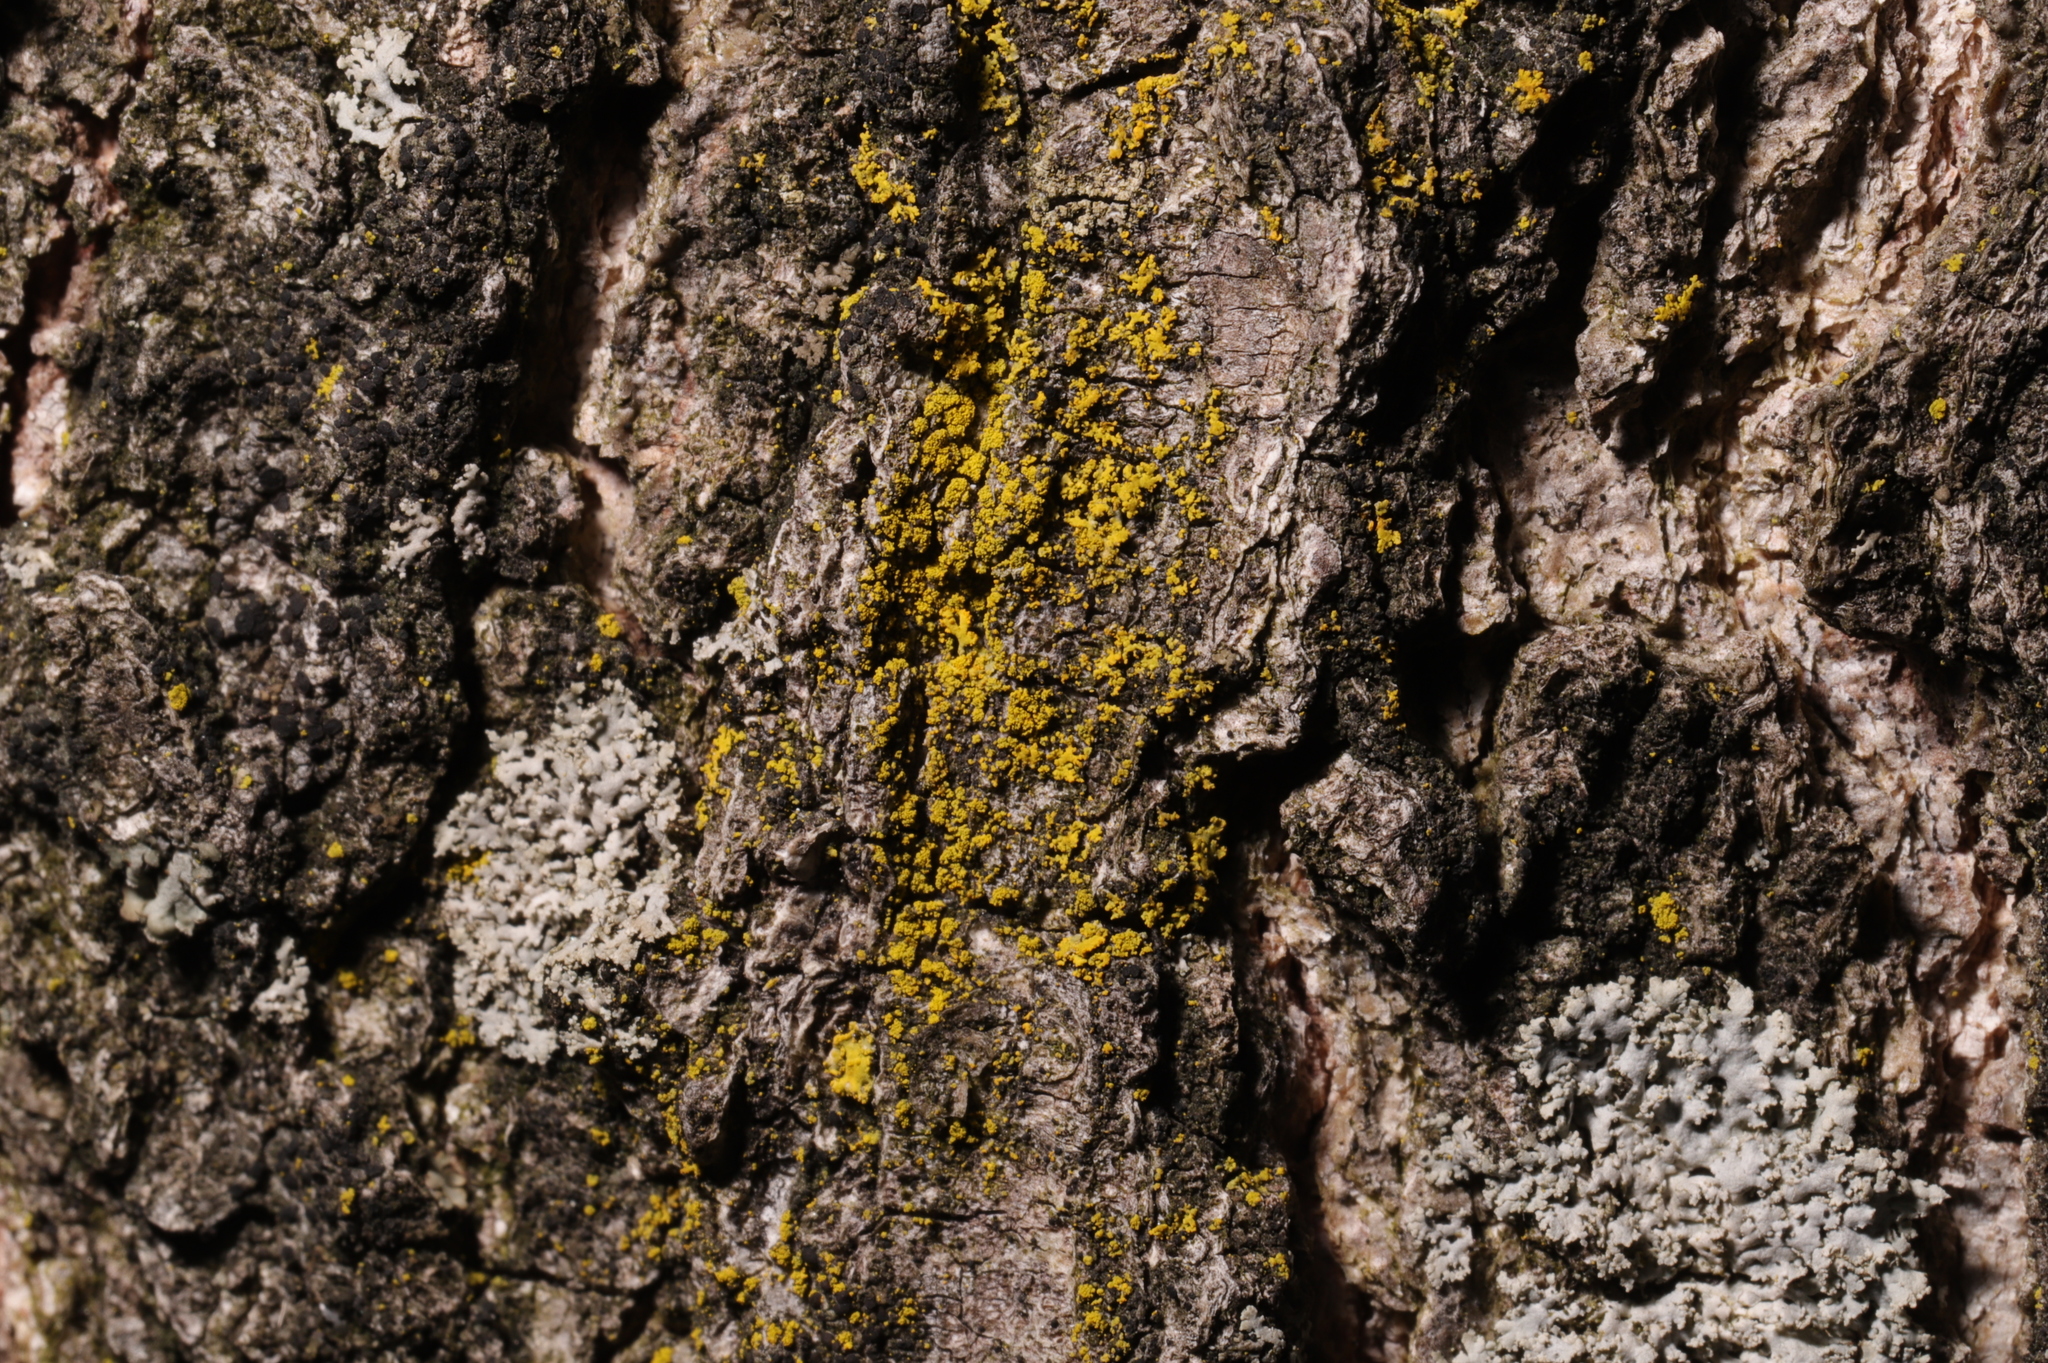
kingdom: Fungi
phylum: Ascomycota
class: Candelariomycetes
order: Candelariales
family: Candelariaceae
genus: Candelaria
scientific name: Candelaria concolor
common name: Candleflame lichen
